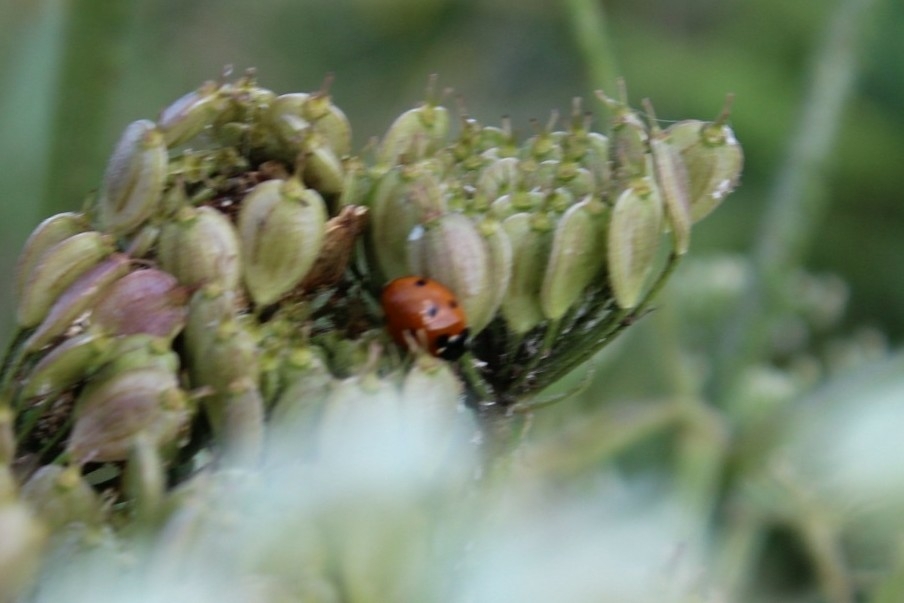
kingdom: Animalia
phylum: Arthropoda
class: Insecta
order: Coleoptera
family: Coccinellidae
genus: Coccinella
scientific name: Coccinella septempunctata
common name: Sevenspotted lady beetle
